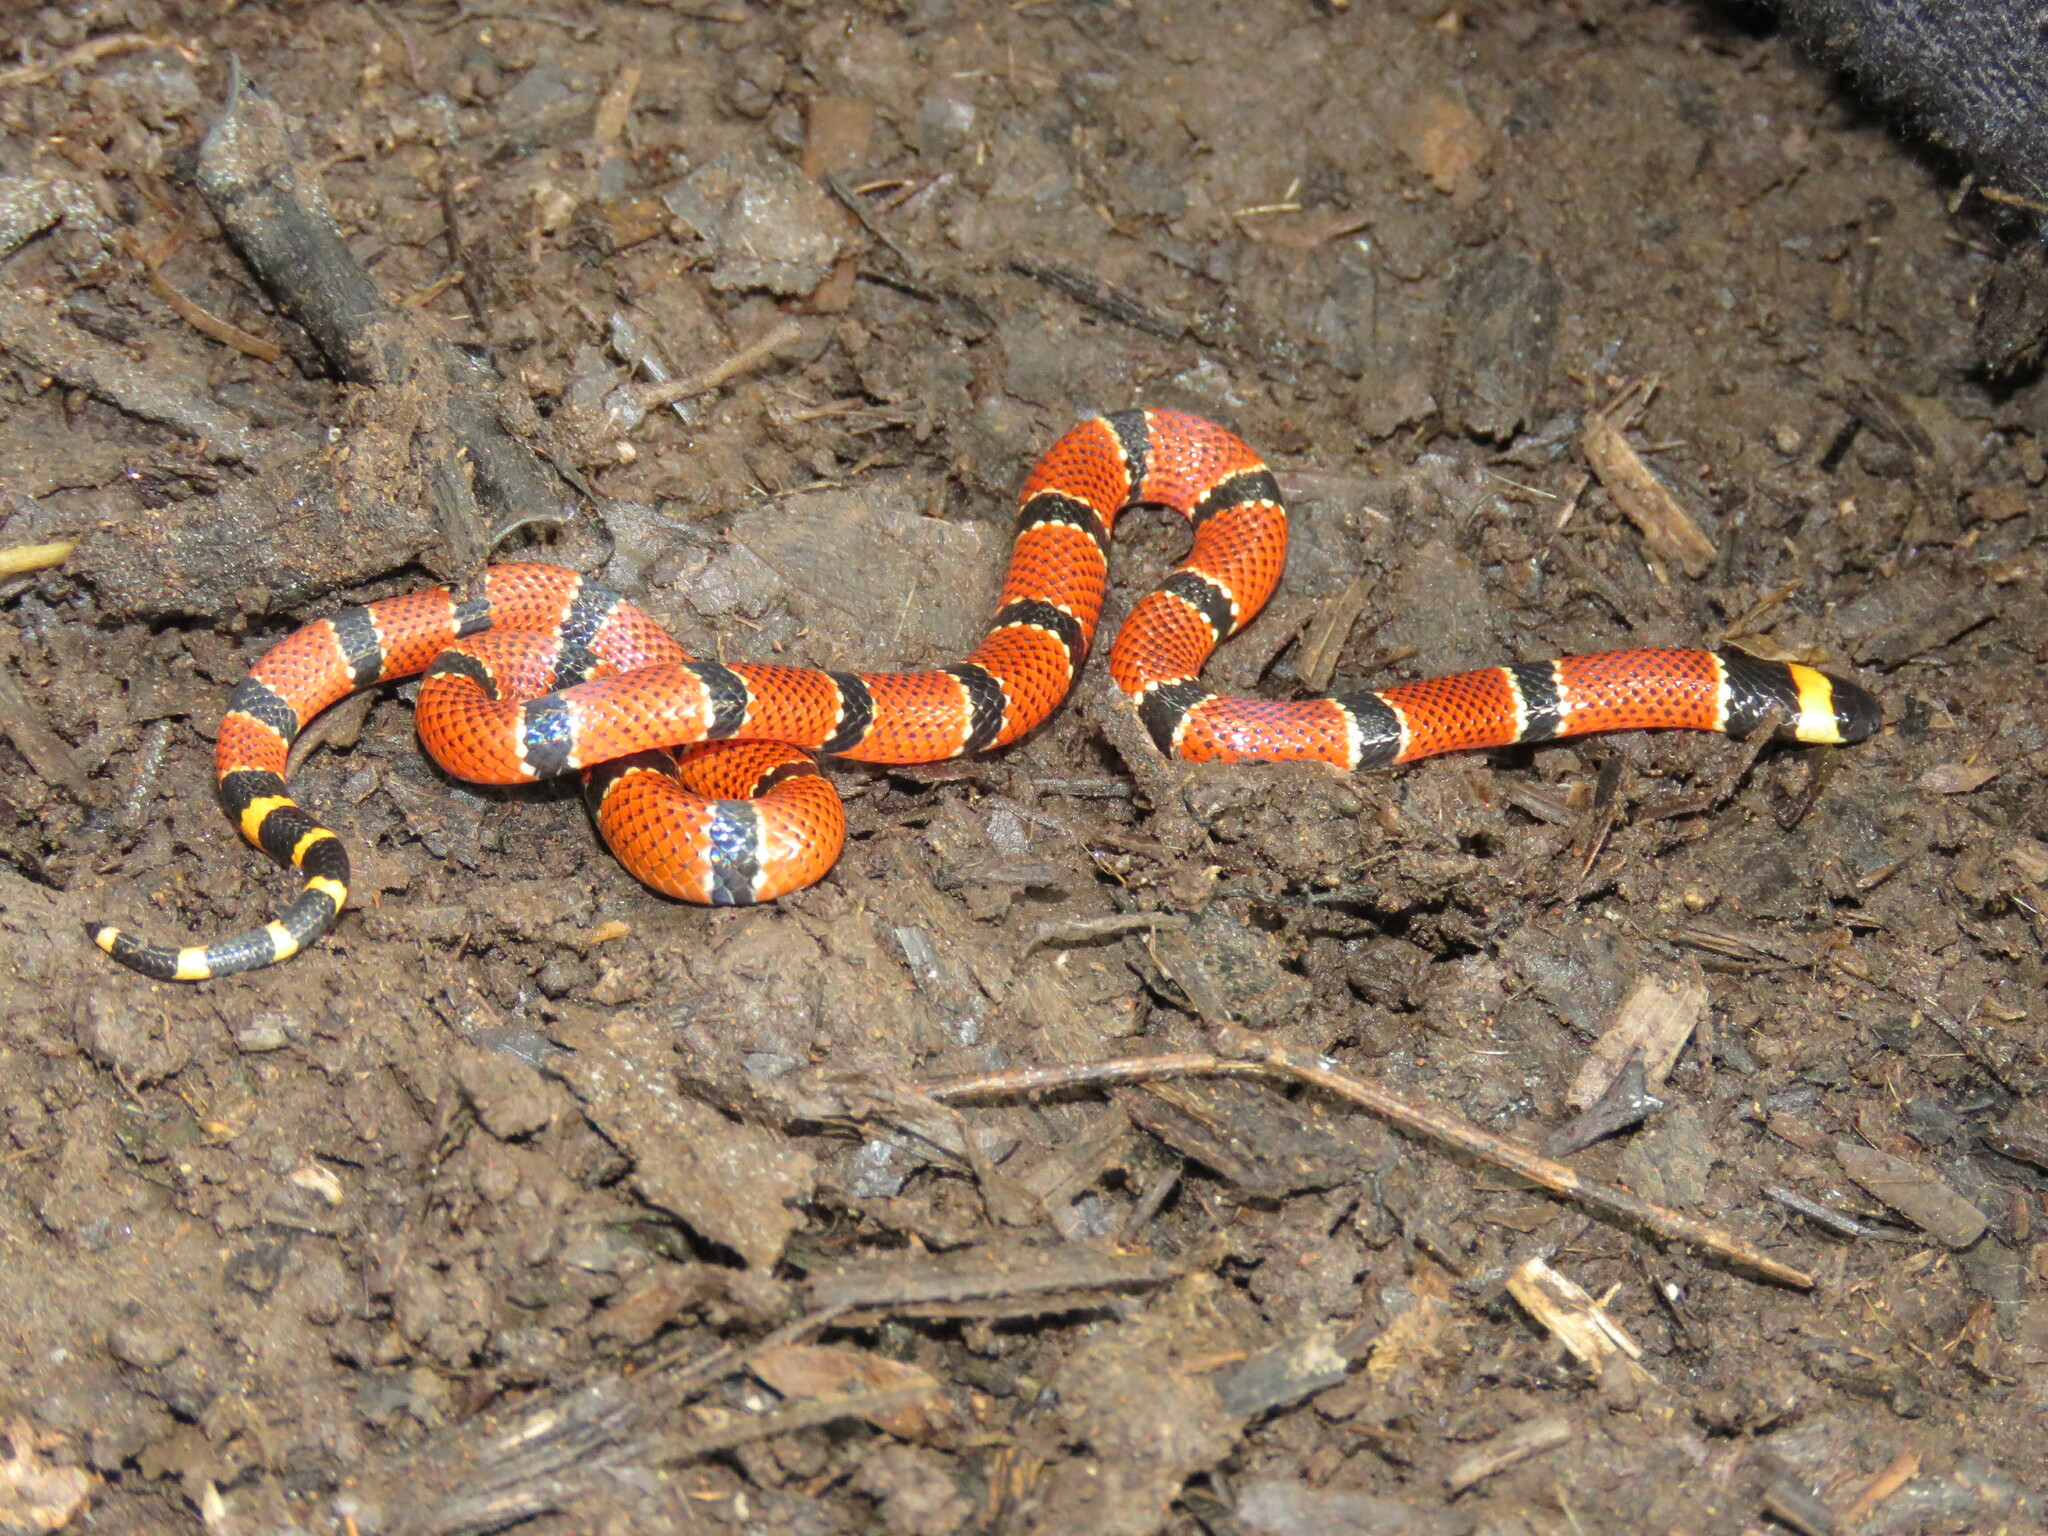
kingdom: Animalia
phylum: Chordata
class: Squamata
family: Elapidae
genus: Micrurus
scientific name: Micrurus nigrocinctus
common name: Babaspul [babaspul]
